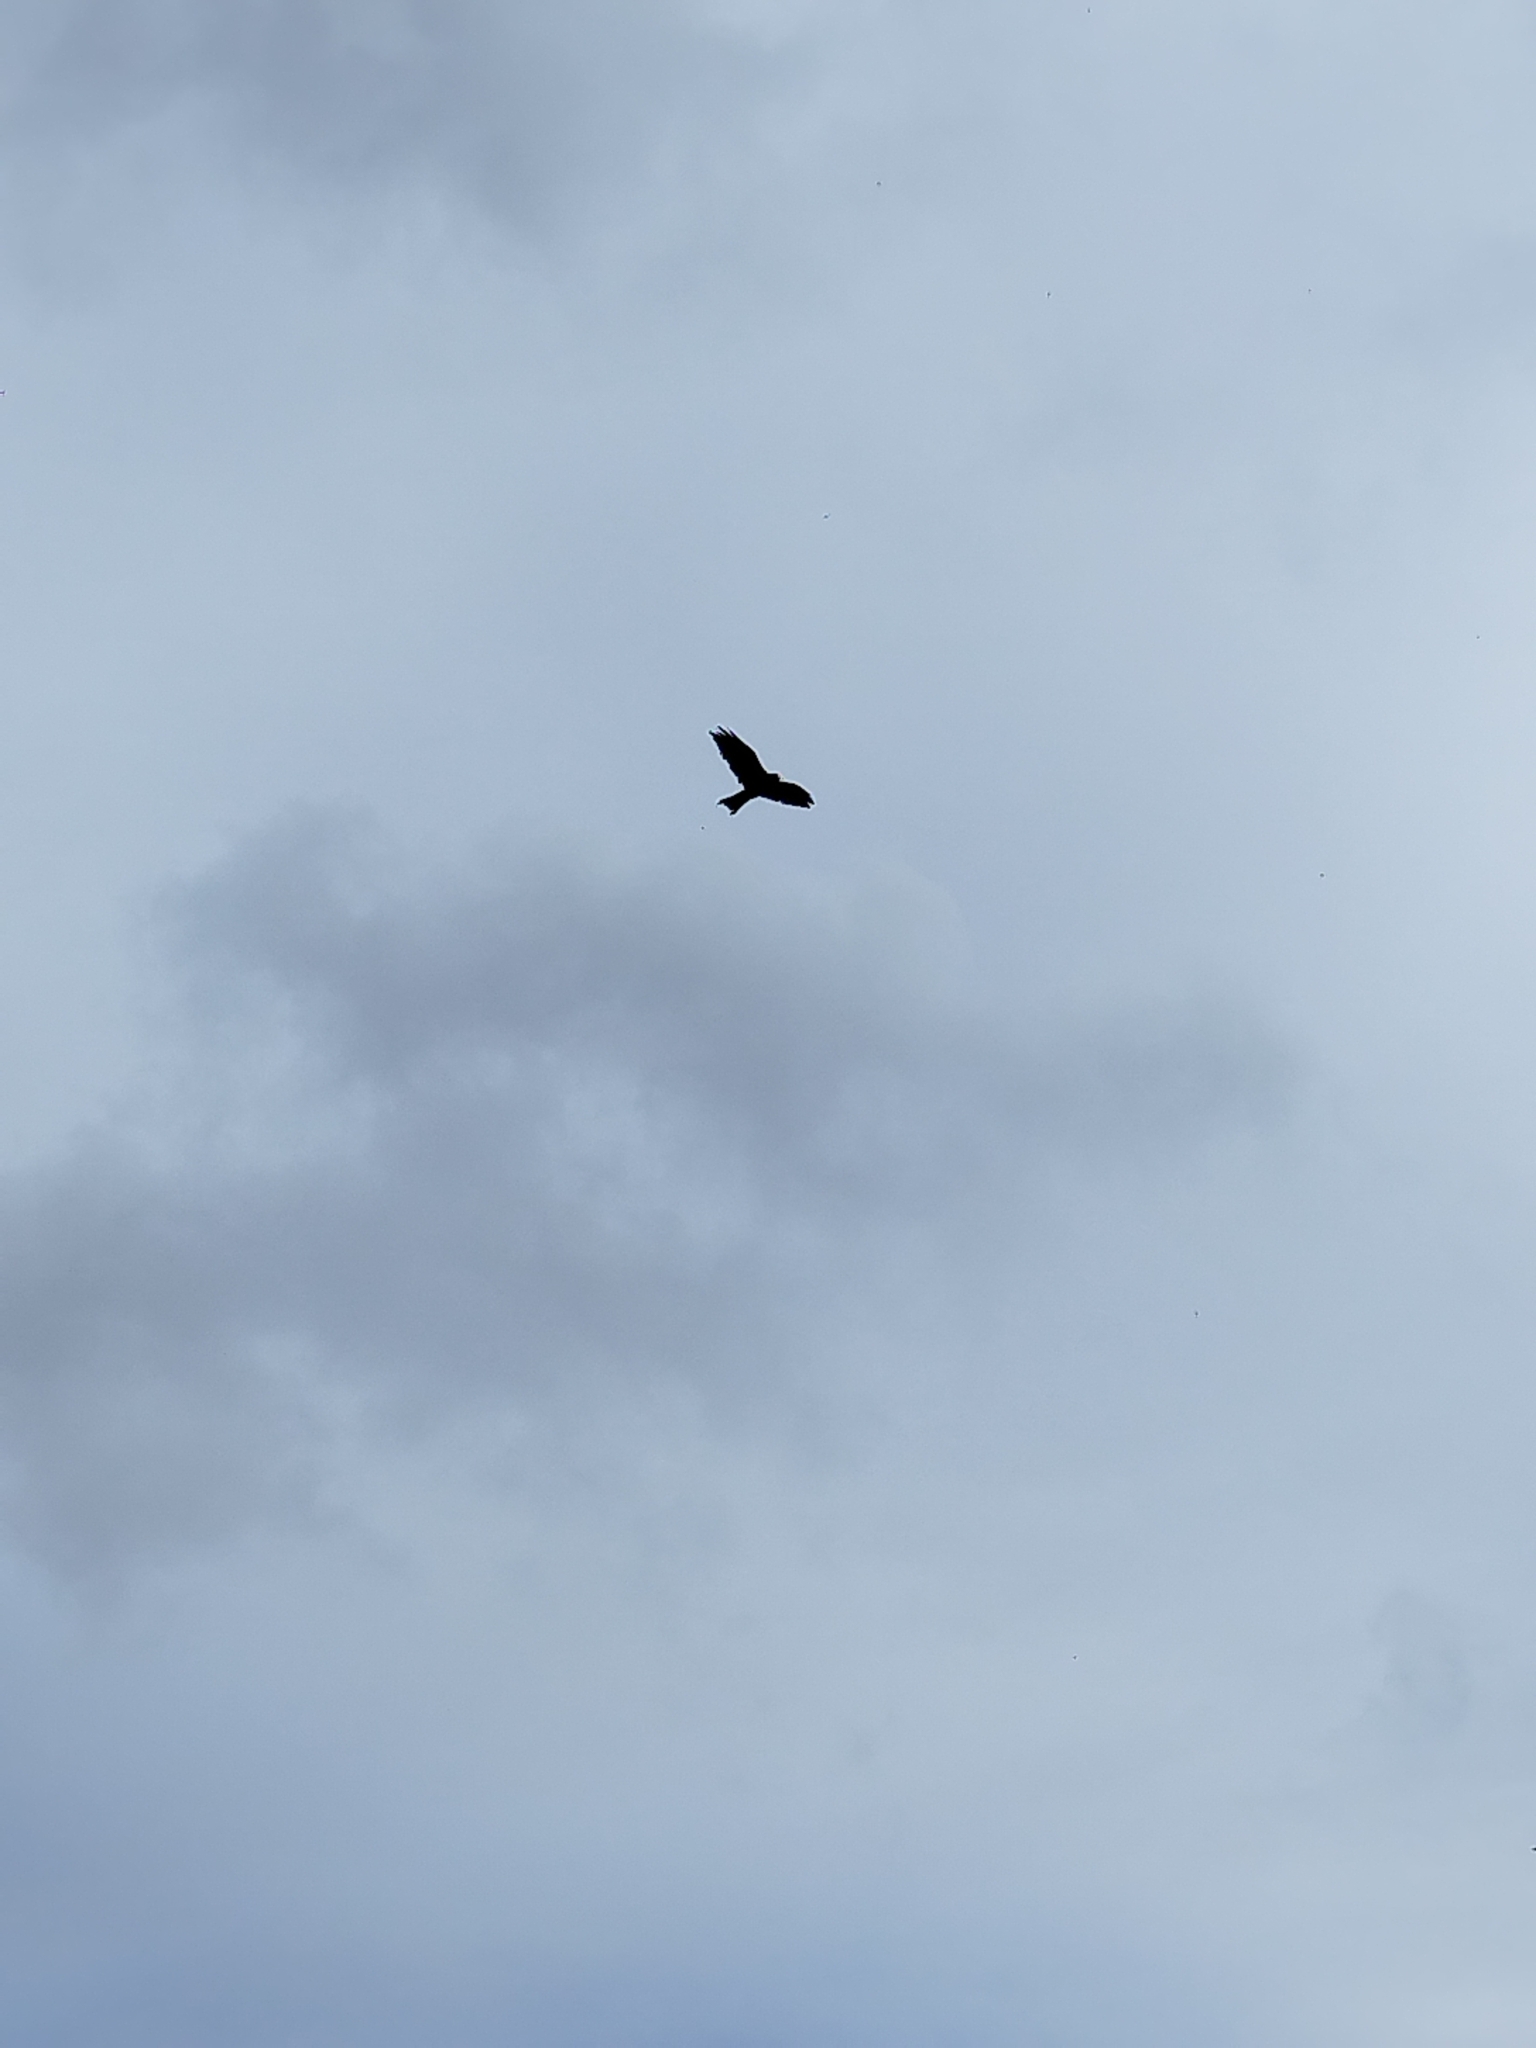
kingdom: Animalia
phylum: Chordata
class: Aves
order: Accipitriformes
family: Accipitridae
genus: Milvus
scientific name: Milvus milvus
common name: Red kite
